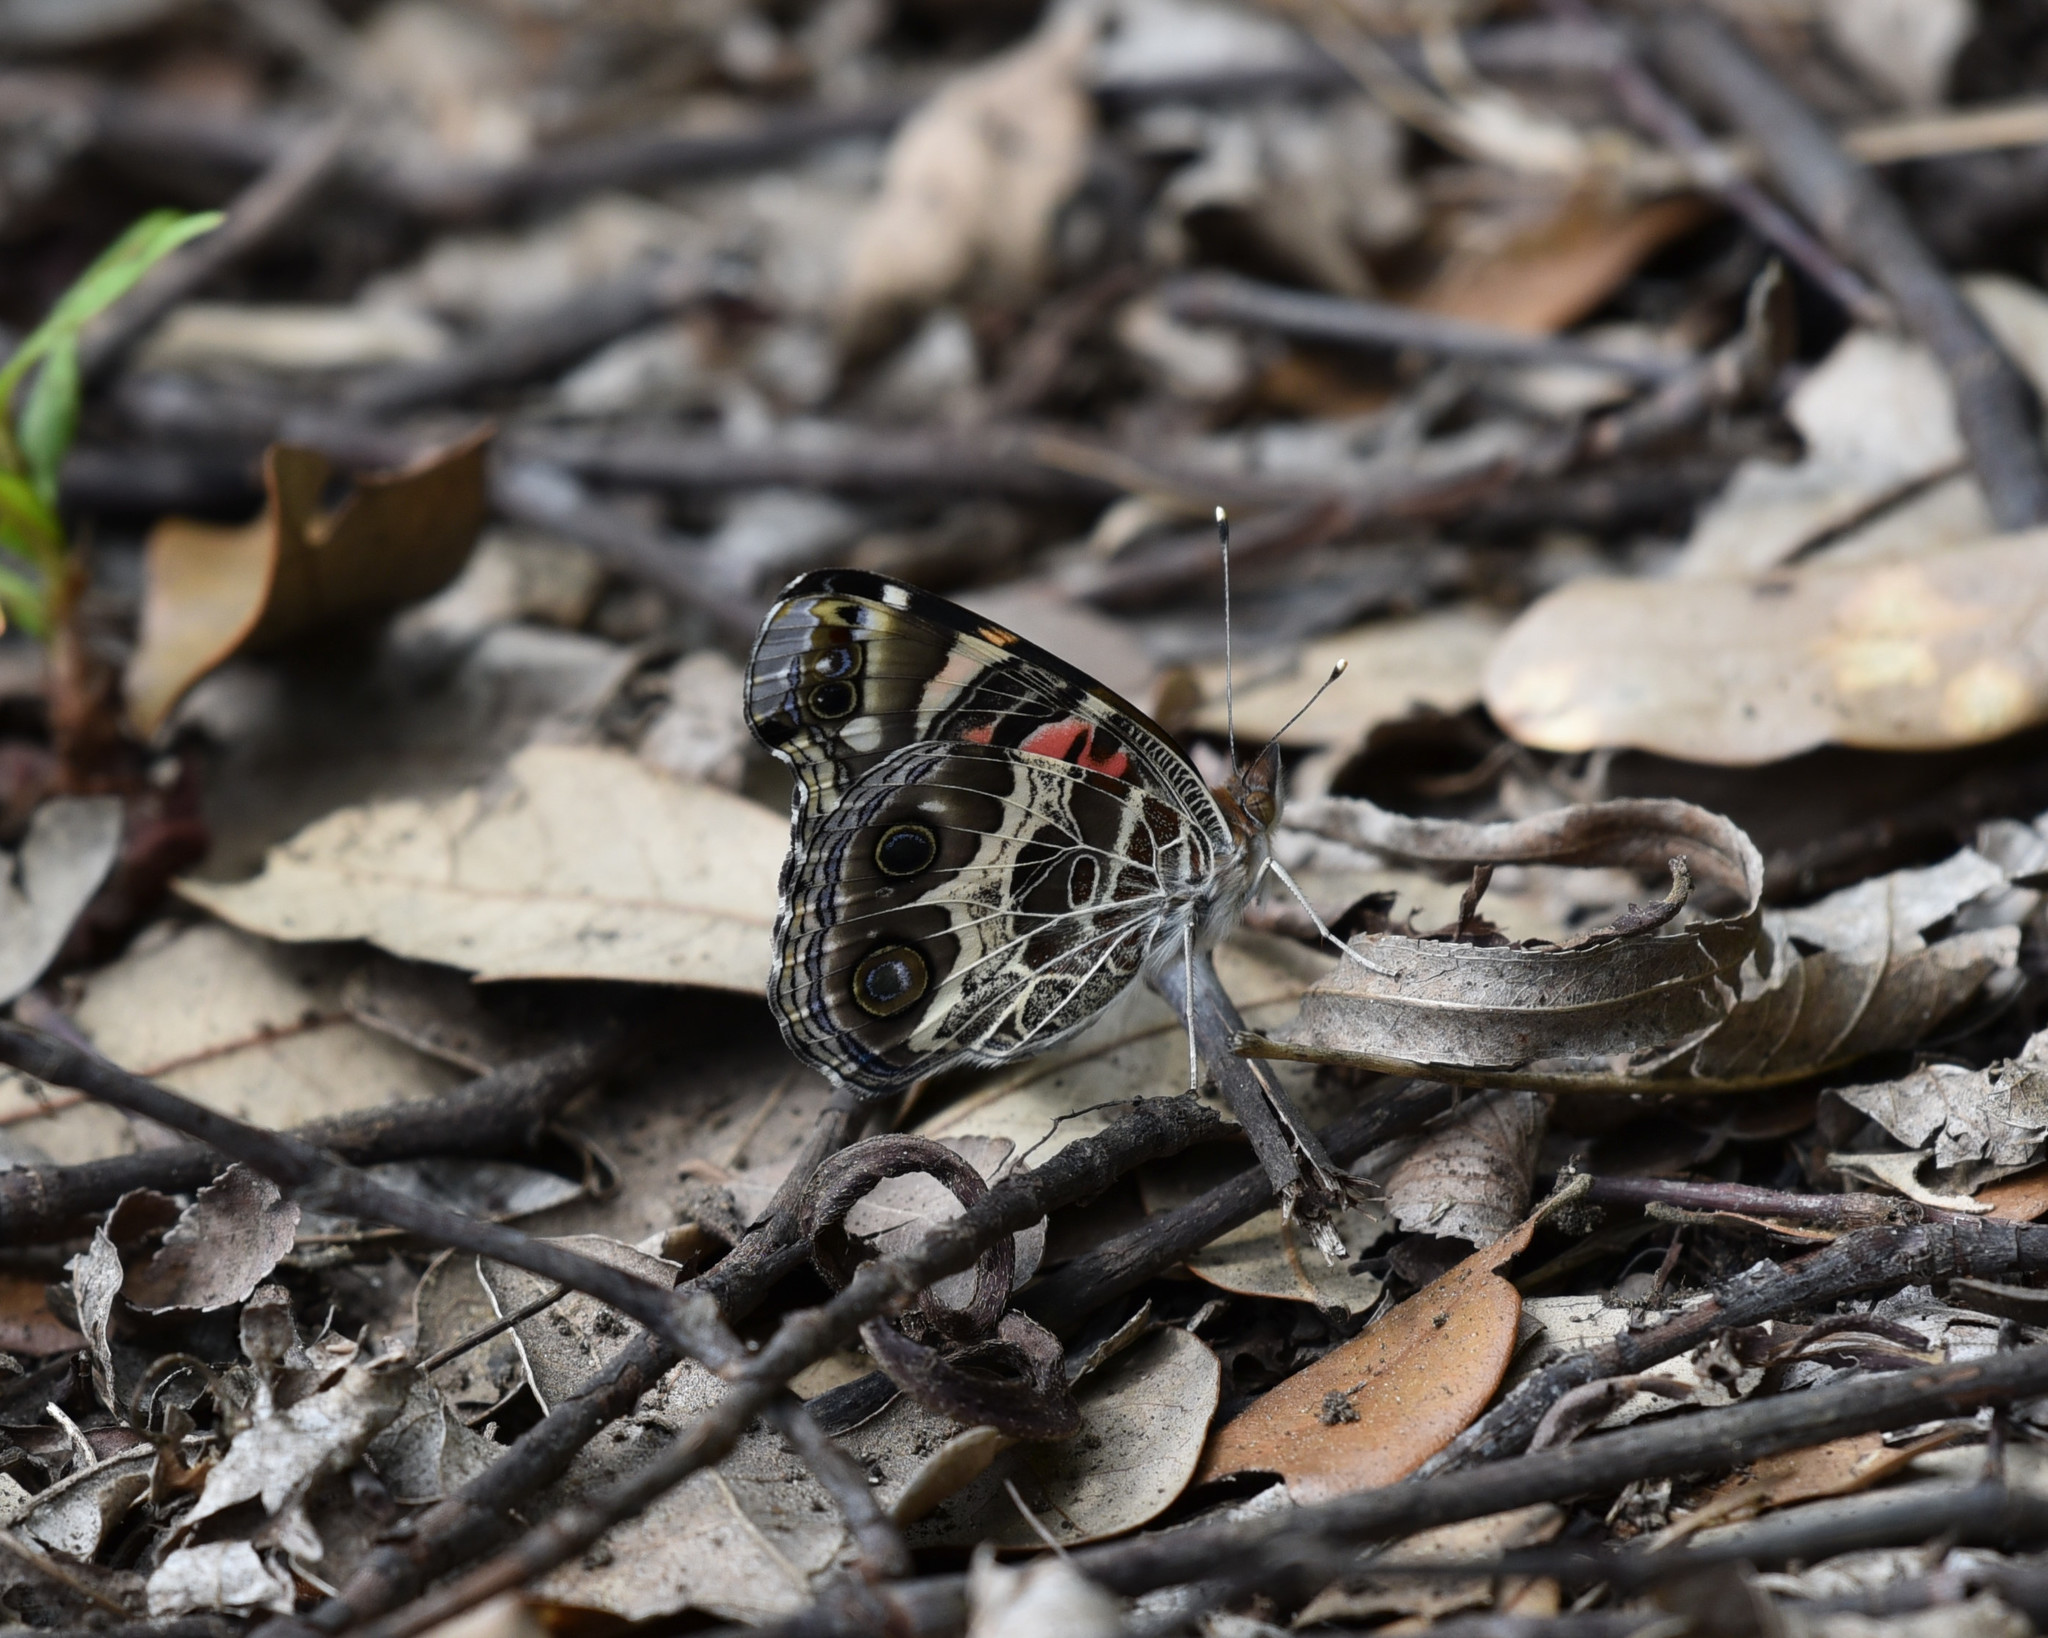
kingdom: Animalia
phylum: Arthropoda
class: Insecta
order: Lepidoptera
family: Nymphalidae
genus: Vanessa
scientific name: Vanessa virginiensis
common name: American lady
